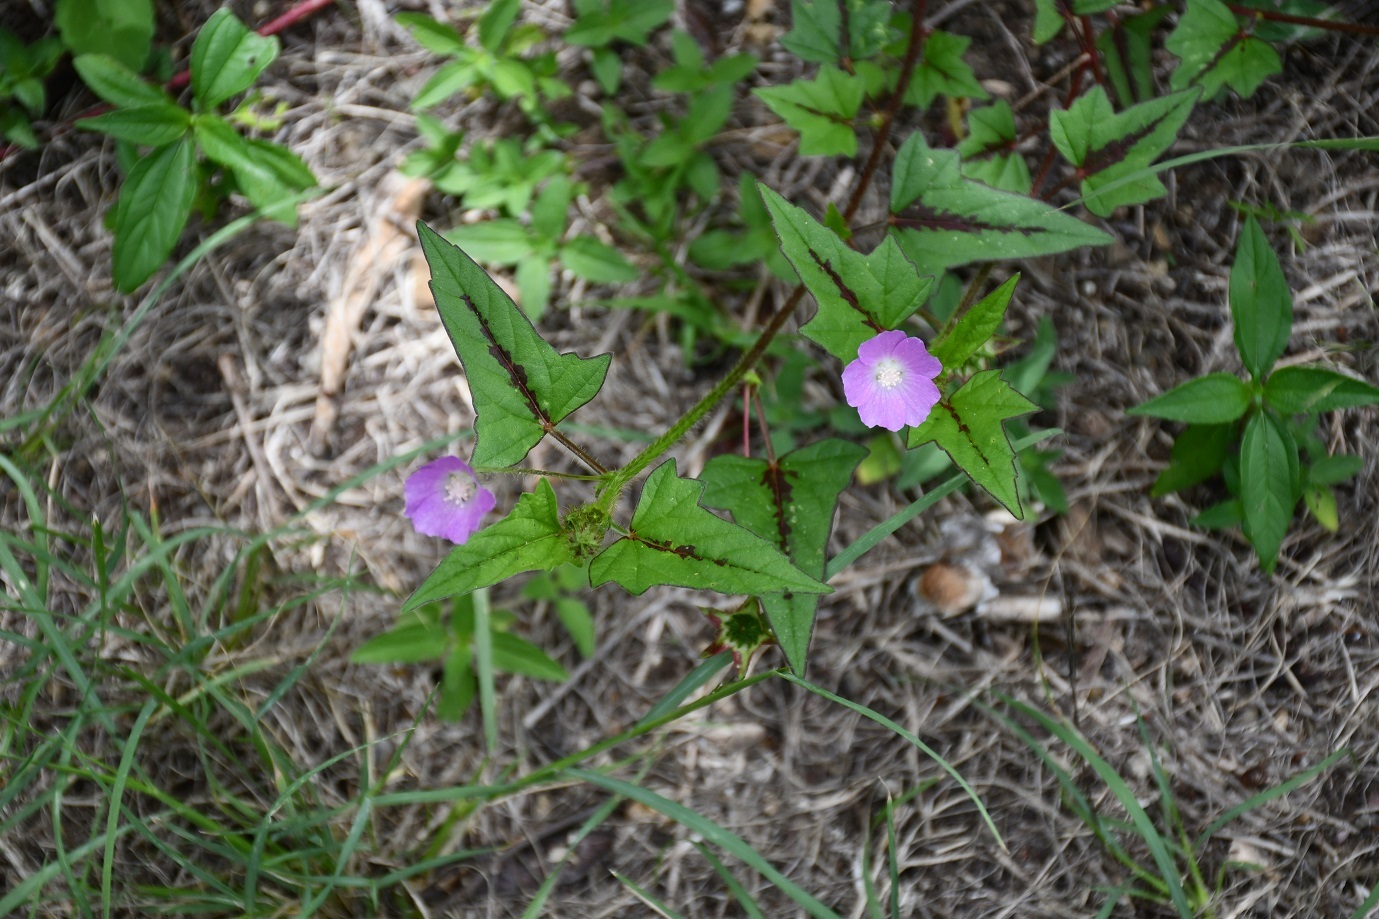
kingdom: Plantae
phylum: Tracheophyta
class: Magnoliopsida
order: Malvales
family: Malvaceae
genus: Anoda
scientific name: Anoda cristata
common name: Spurred anoda
